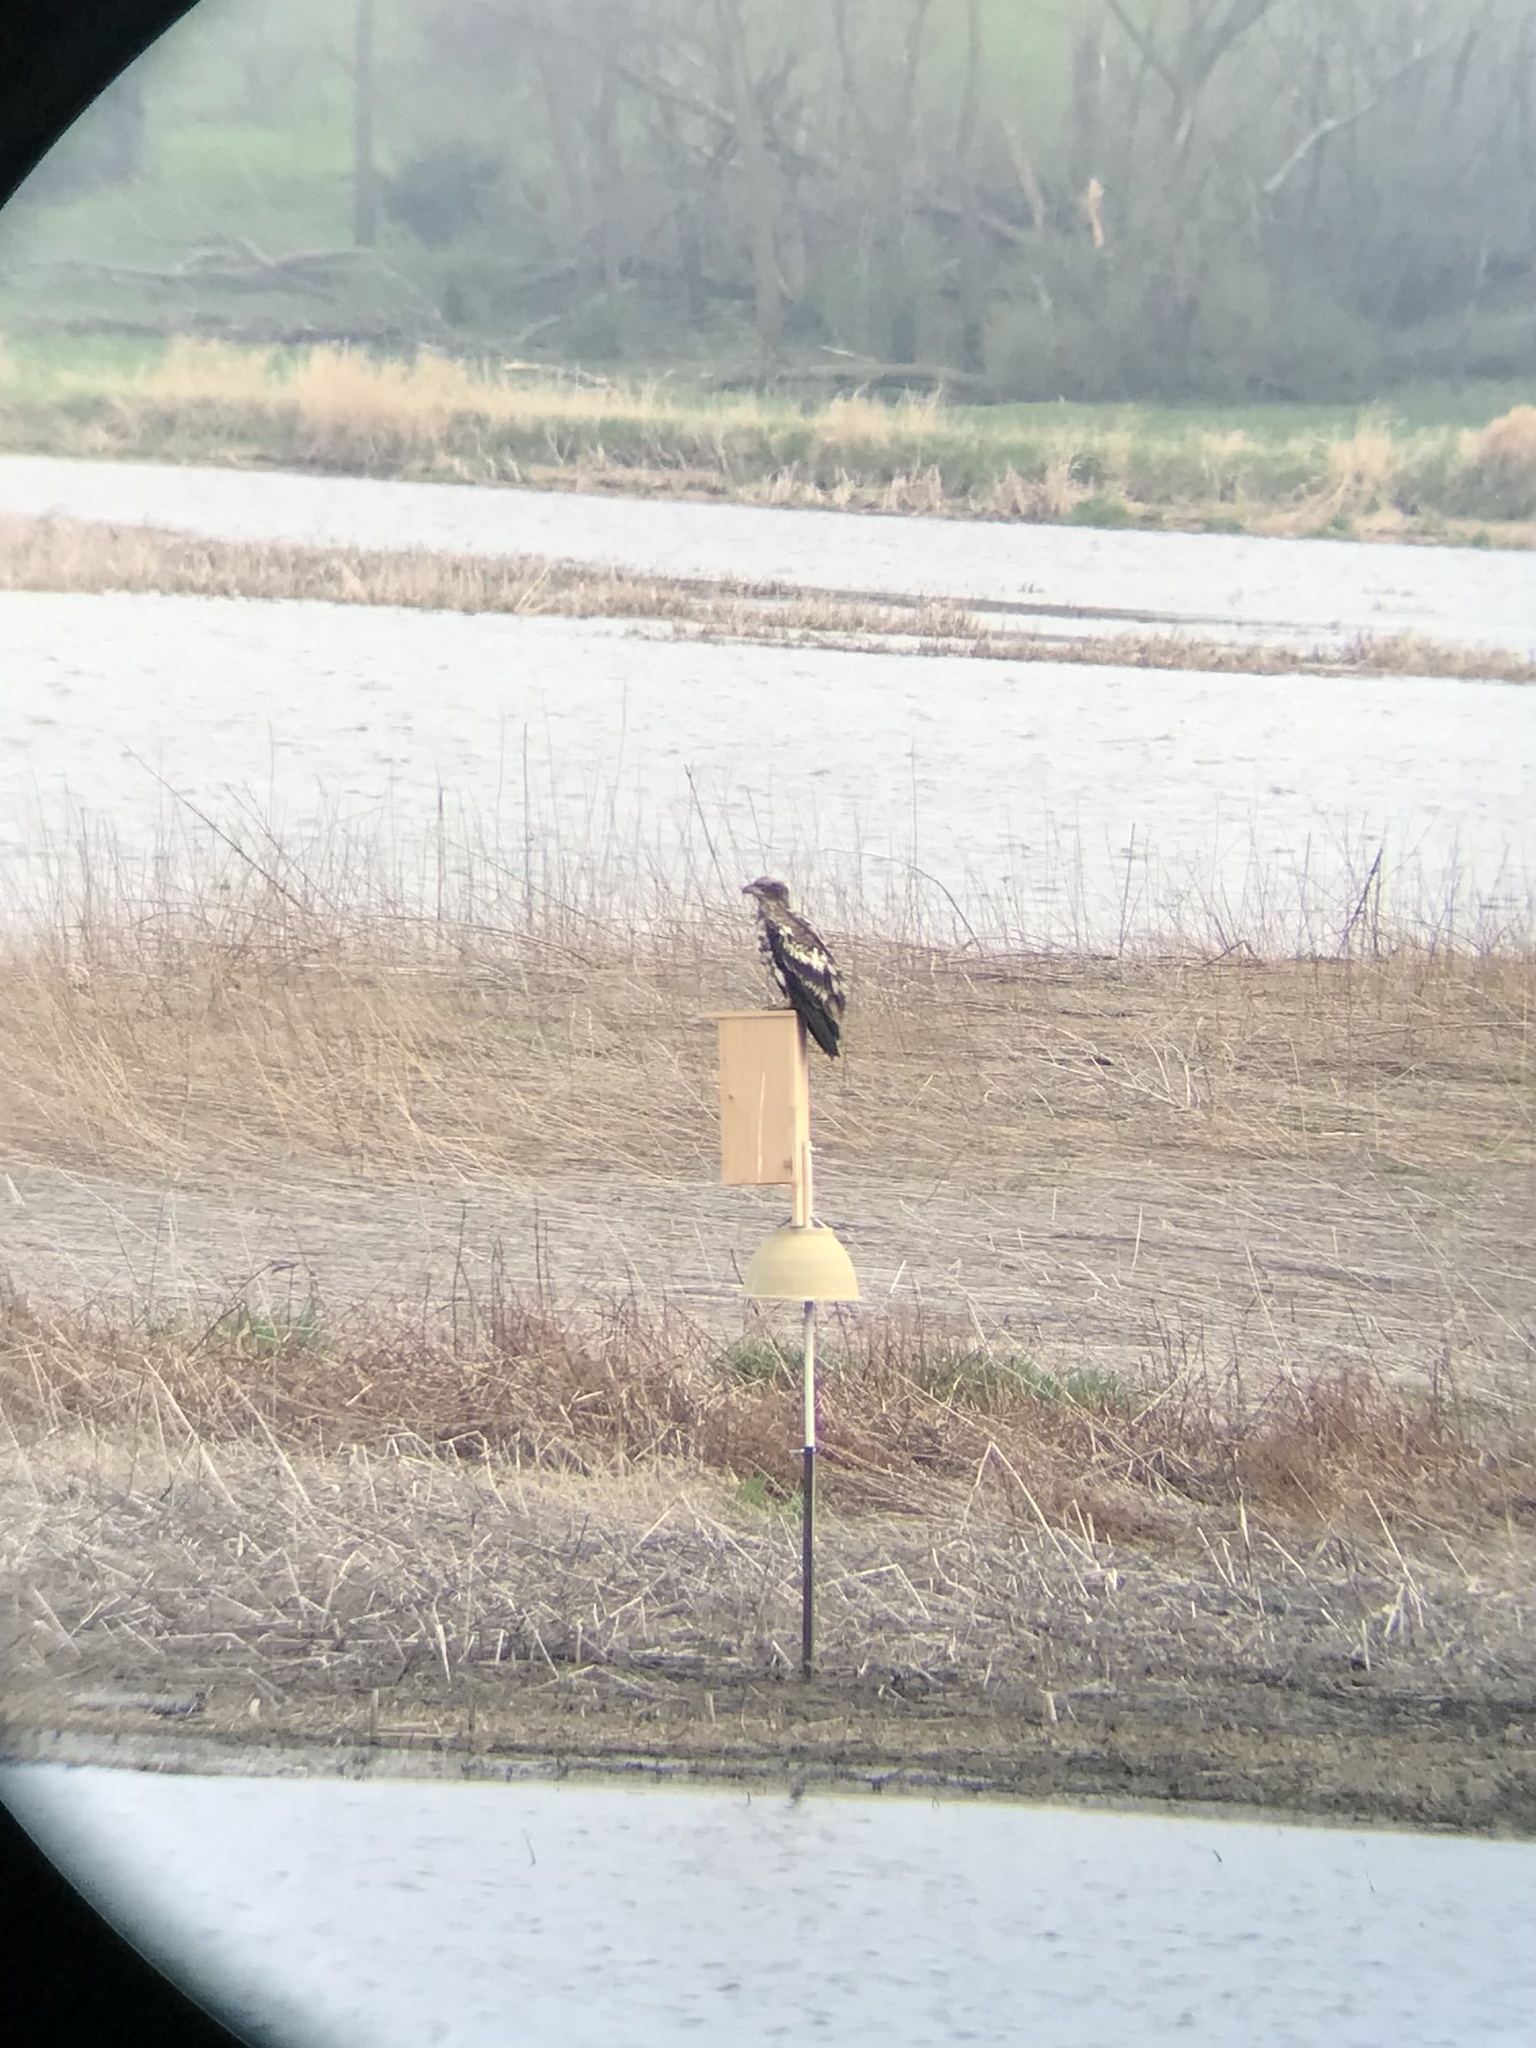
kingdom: Animalia
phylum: Chordata
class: Aves
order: Accipitriformes
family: Accipitridae
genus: Haliaeetus
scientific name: Haliaeetus leucocephalus
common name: Bald eagle
